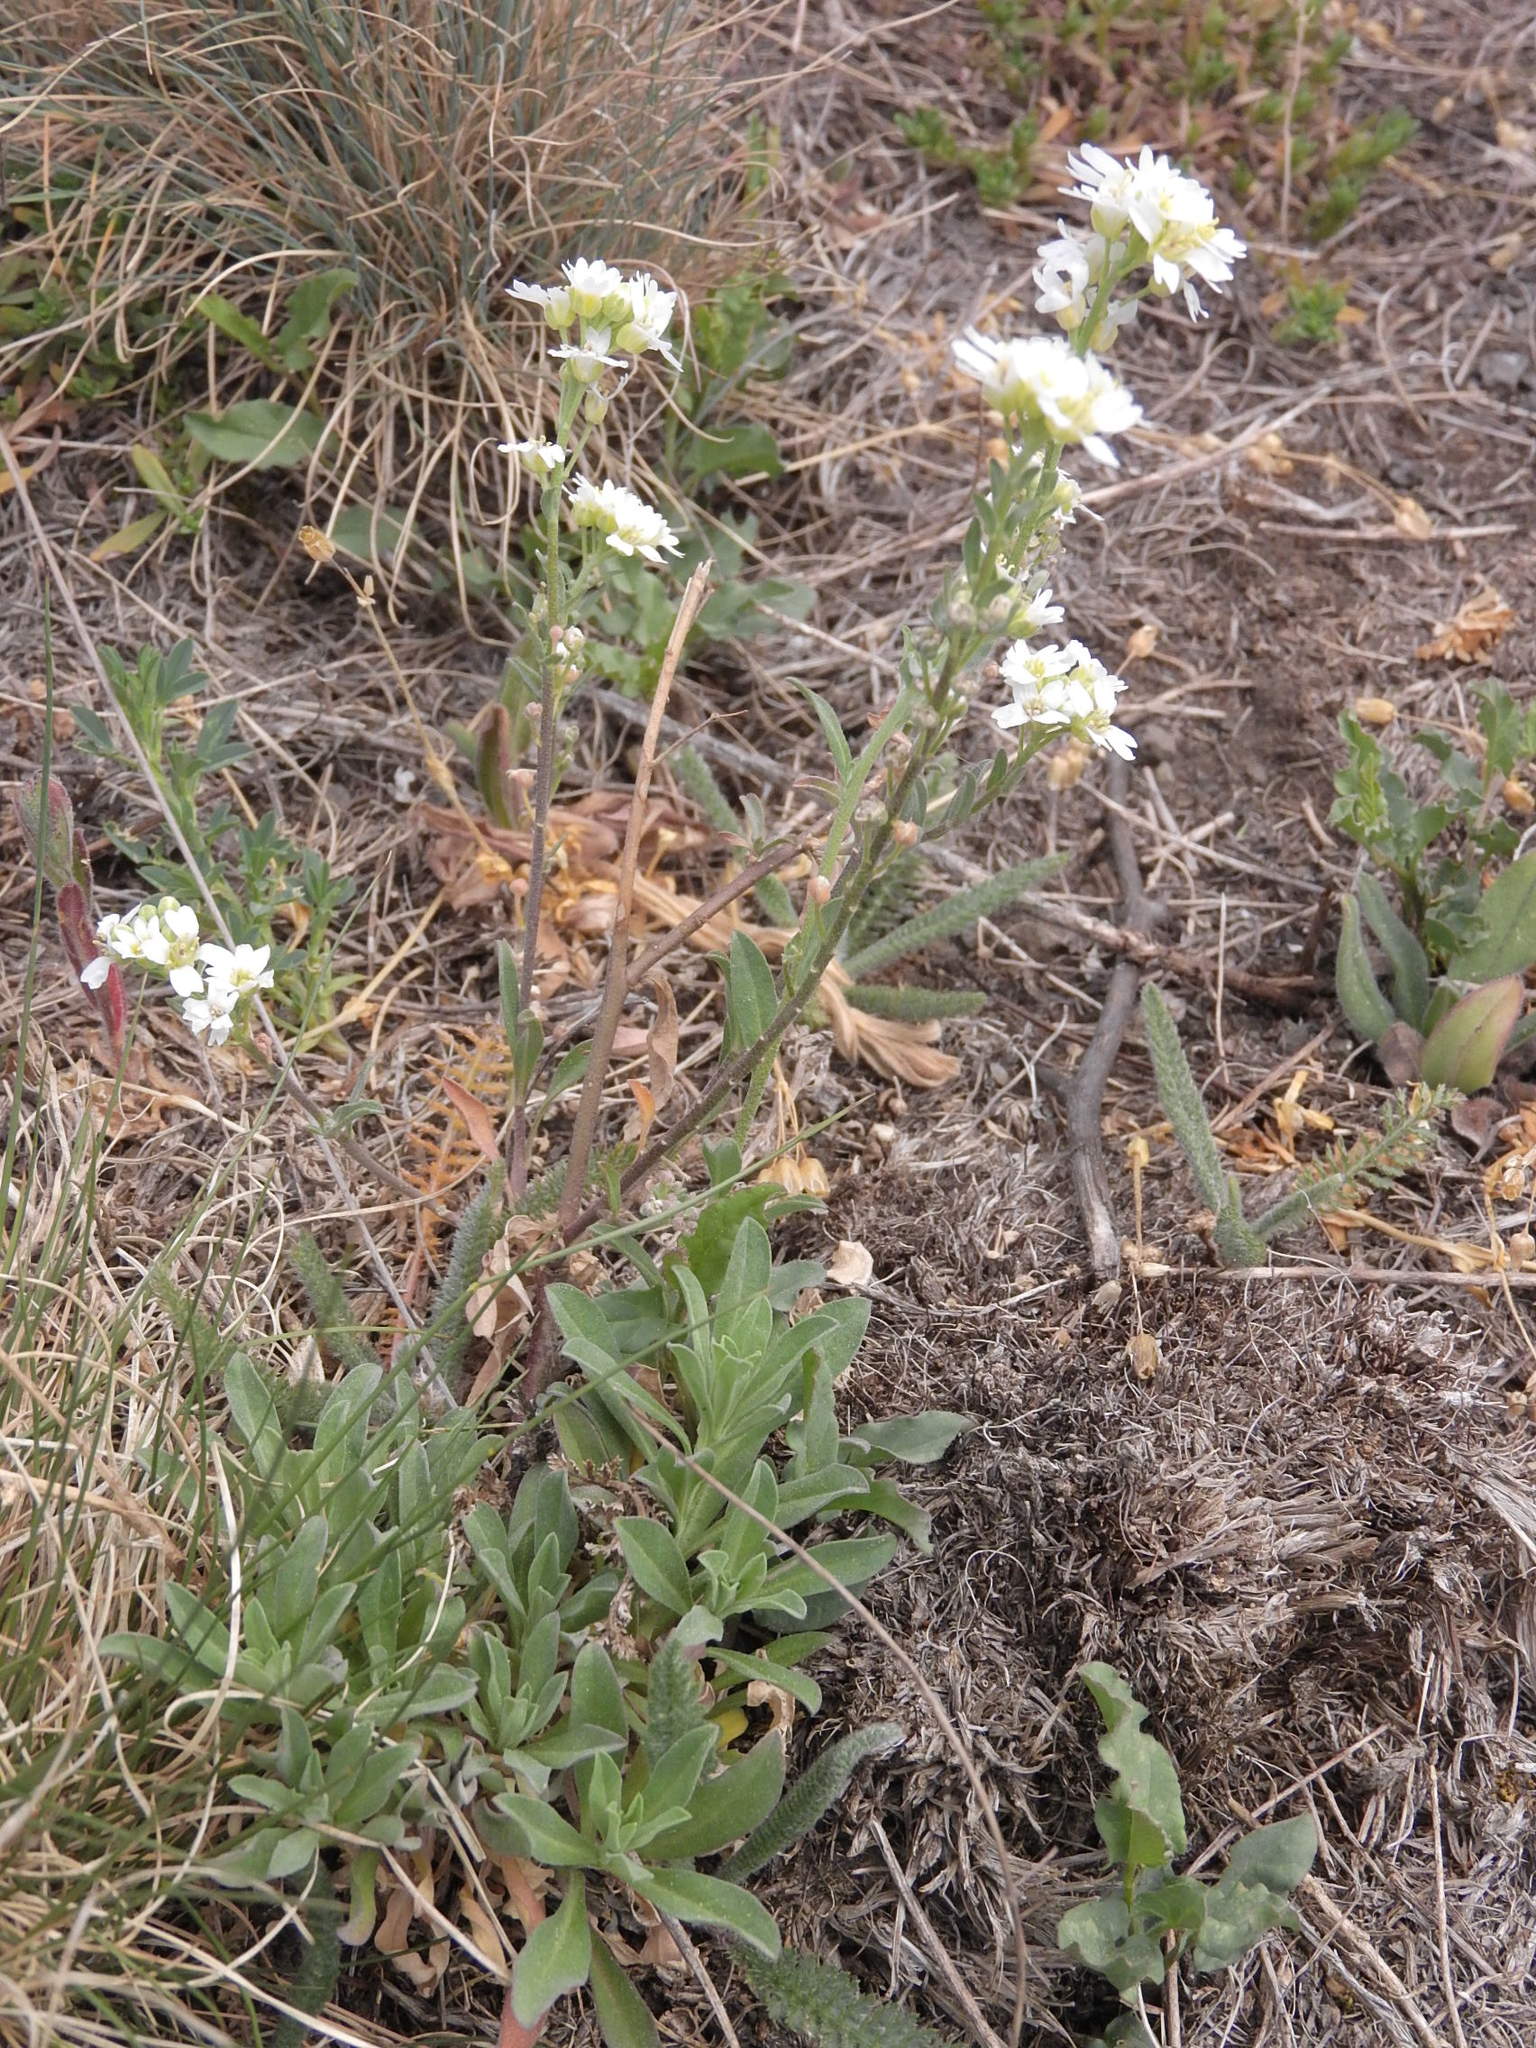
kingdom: Plantae
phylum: Tracheophyta
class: Magnoliopsida
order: Brassicales
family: Brassicaceae
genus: Berteroa
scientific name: Berteroa incana
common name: Hoary alison
